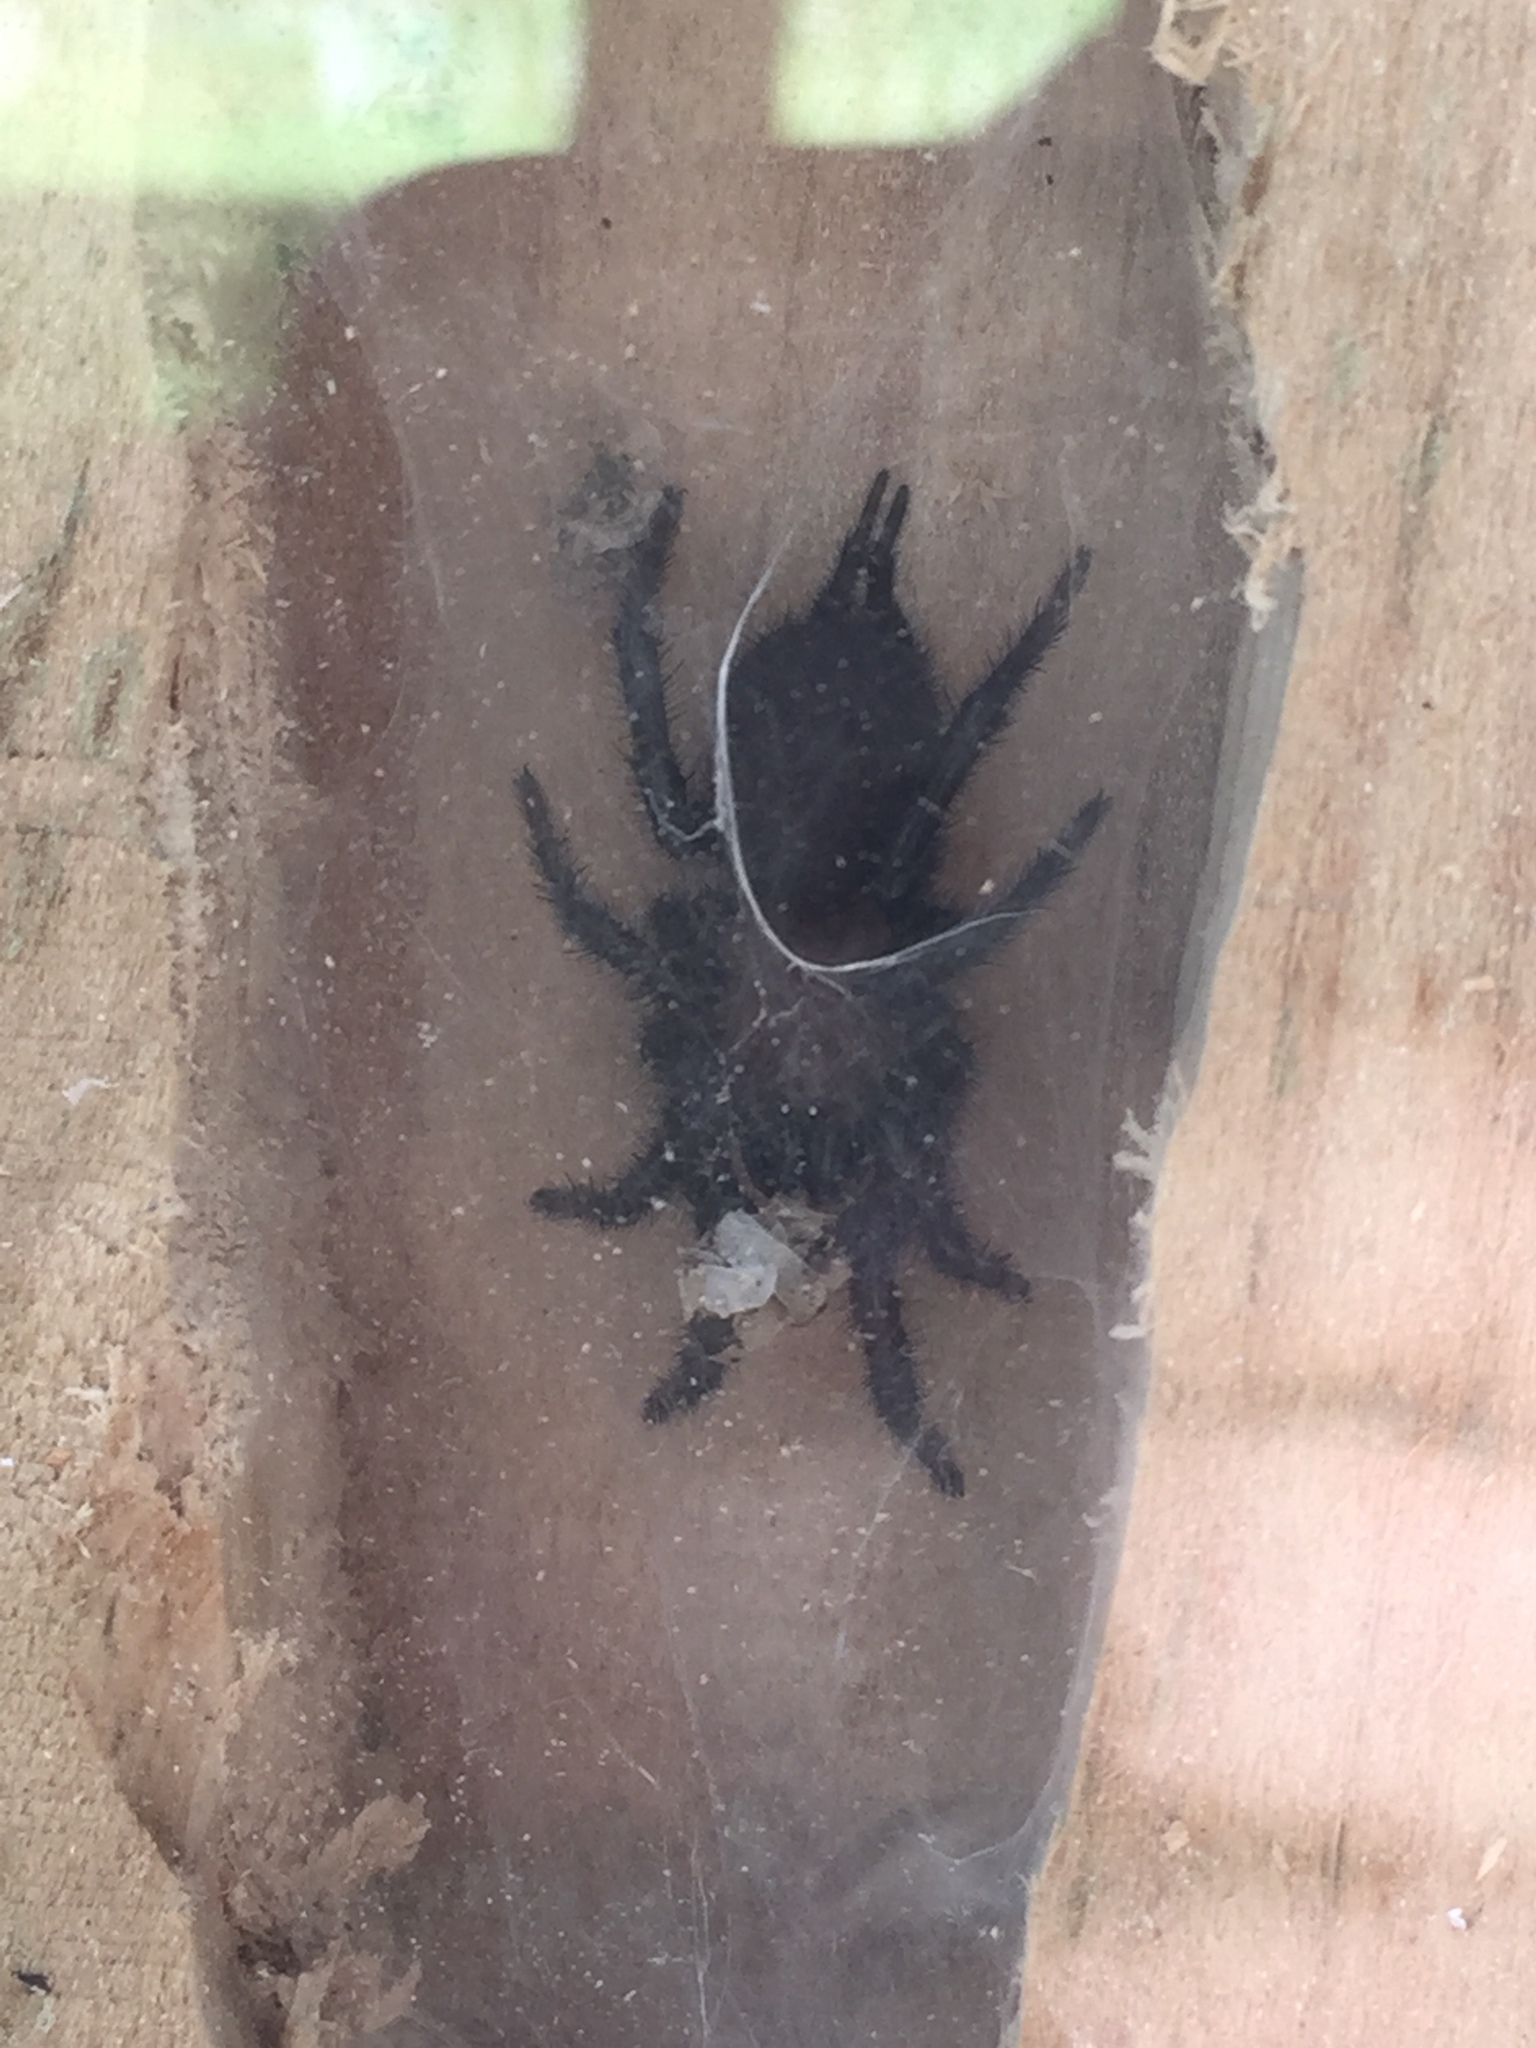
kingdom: Animalia
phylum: Arthropoda
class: Arachnida
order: Araneae
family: Porrhothelidae
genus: Porrhothele
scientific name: Porrhothele antipodiana
